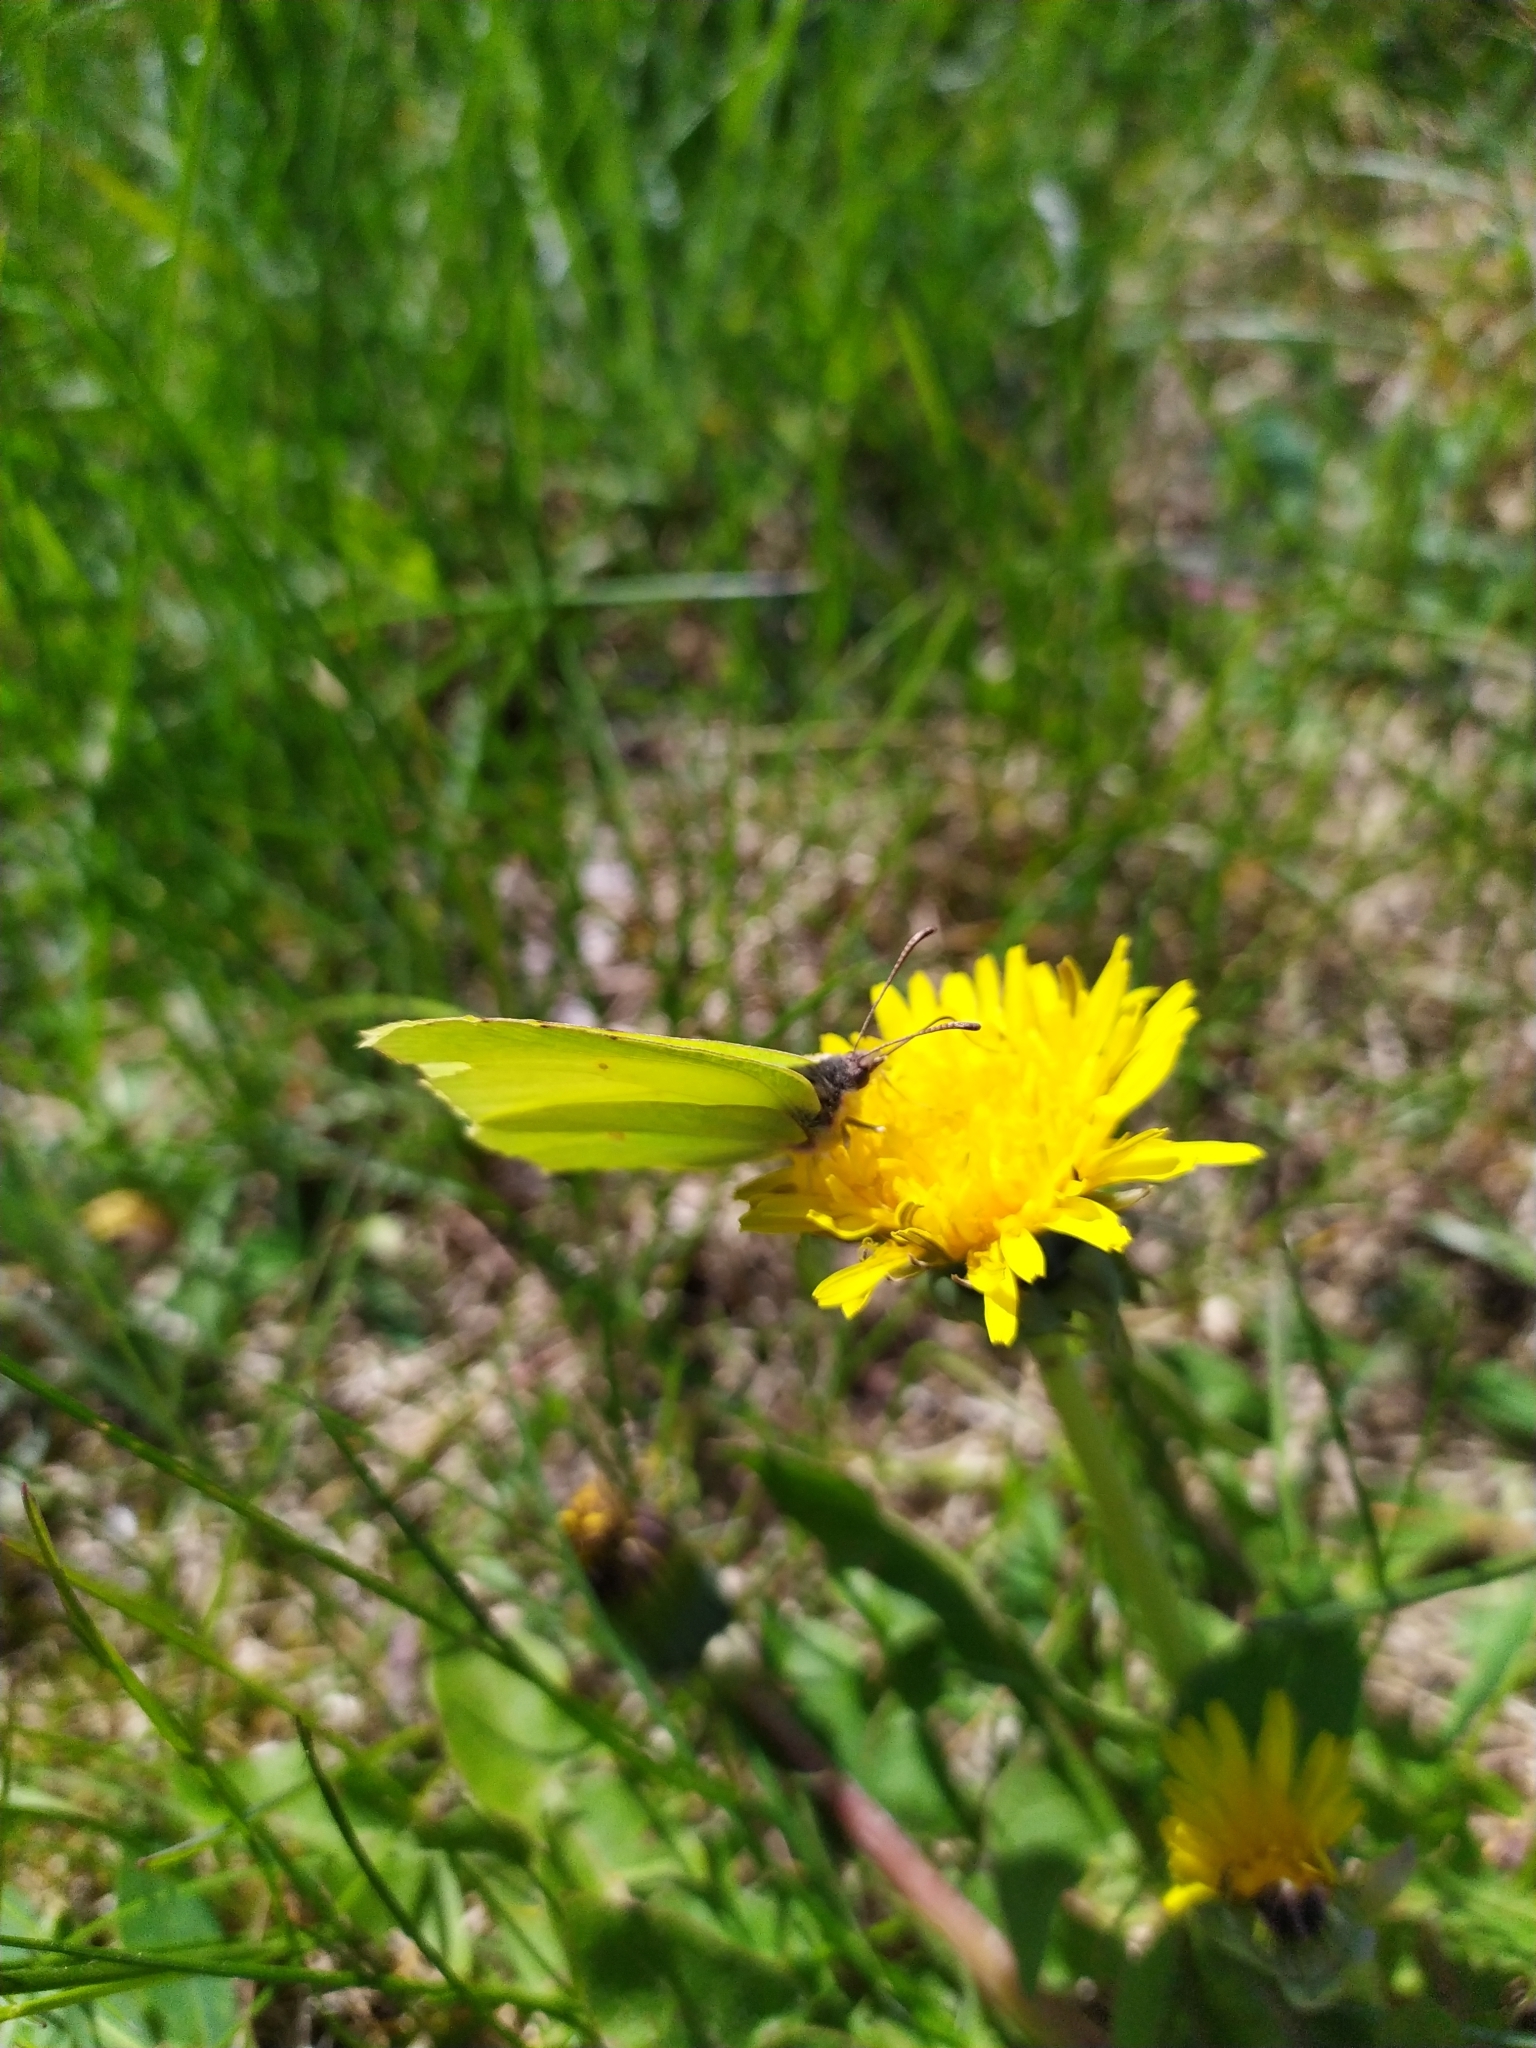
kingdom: Animalia
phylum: Arthropoda
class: Insecta
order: Lepidoptera
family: Pieridae
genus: Gonepteryx
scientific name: Gonepteryx rhamni
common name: Brimstone
